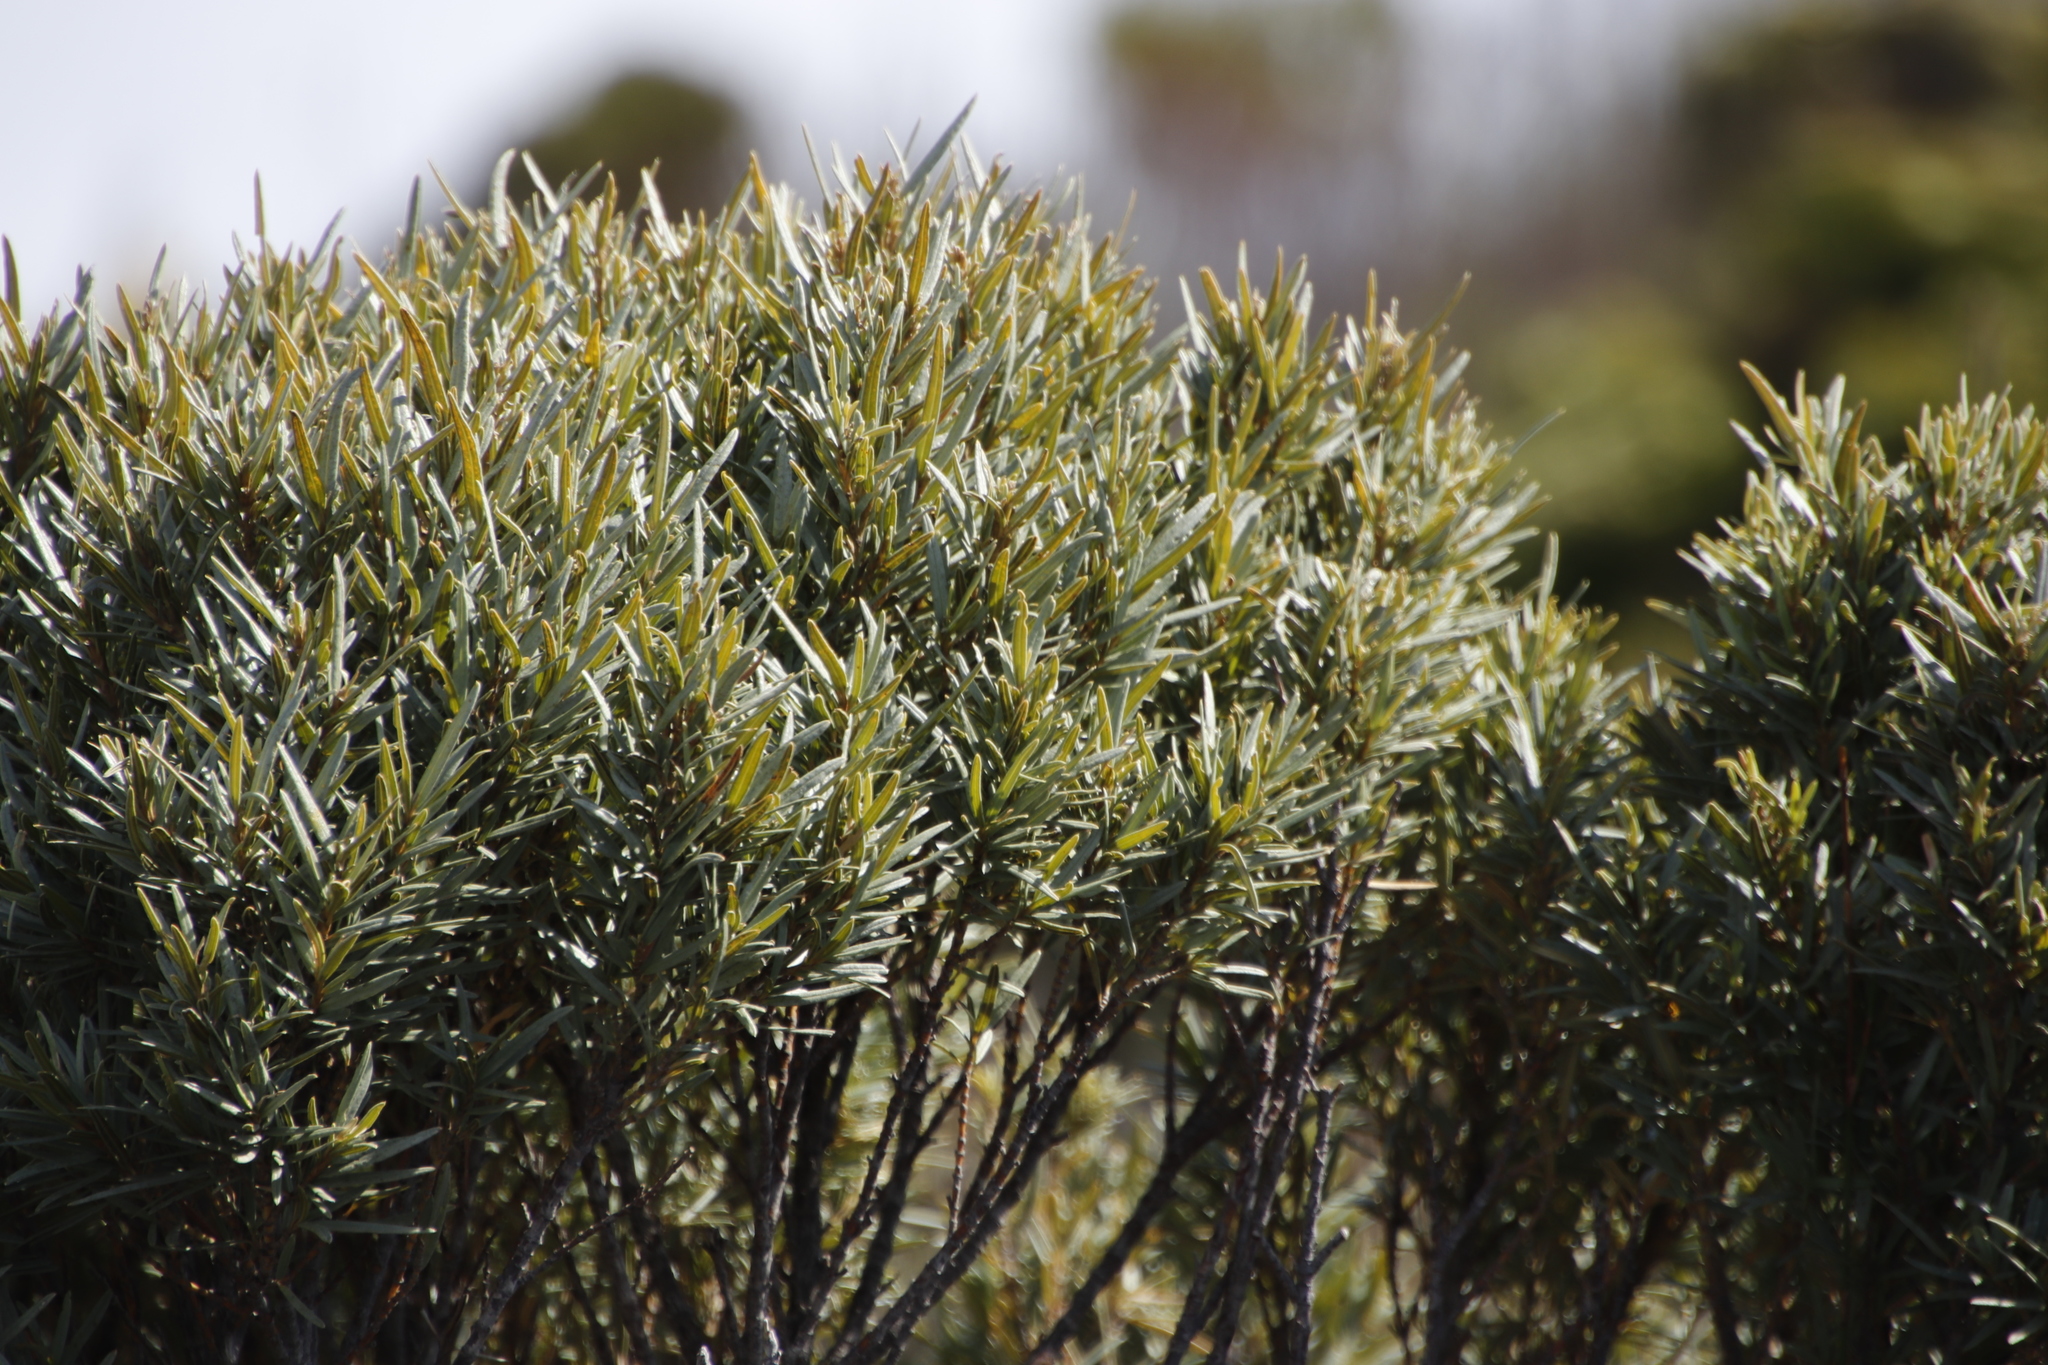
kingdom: Plantae
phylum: Tracheophyta
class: Magnoliopsida
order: Cornales
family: Grubbiaceae
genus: Grubbia
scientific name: Grubbia tomentosa
